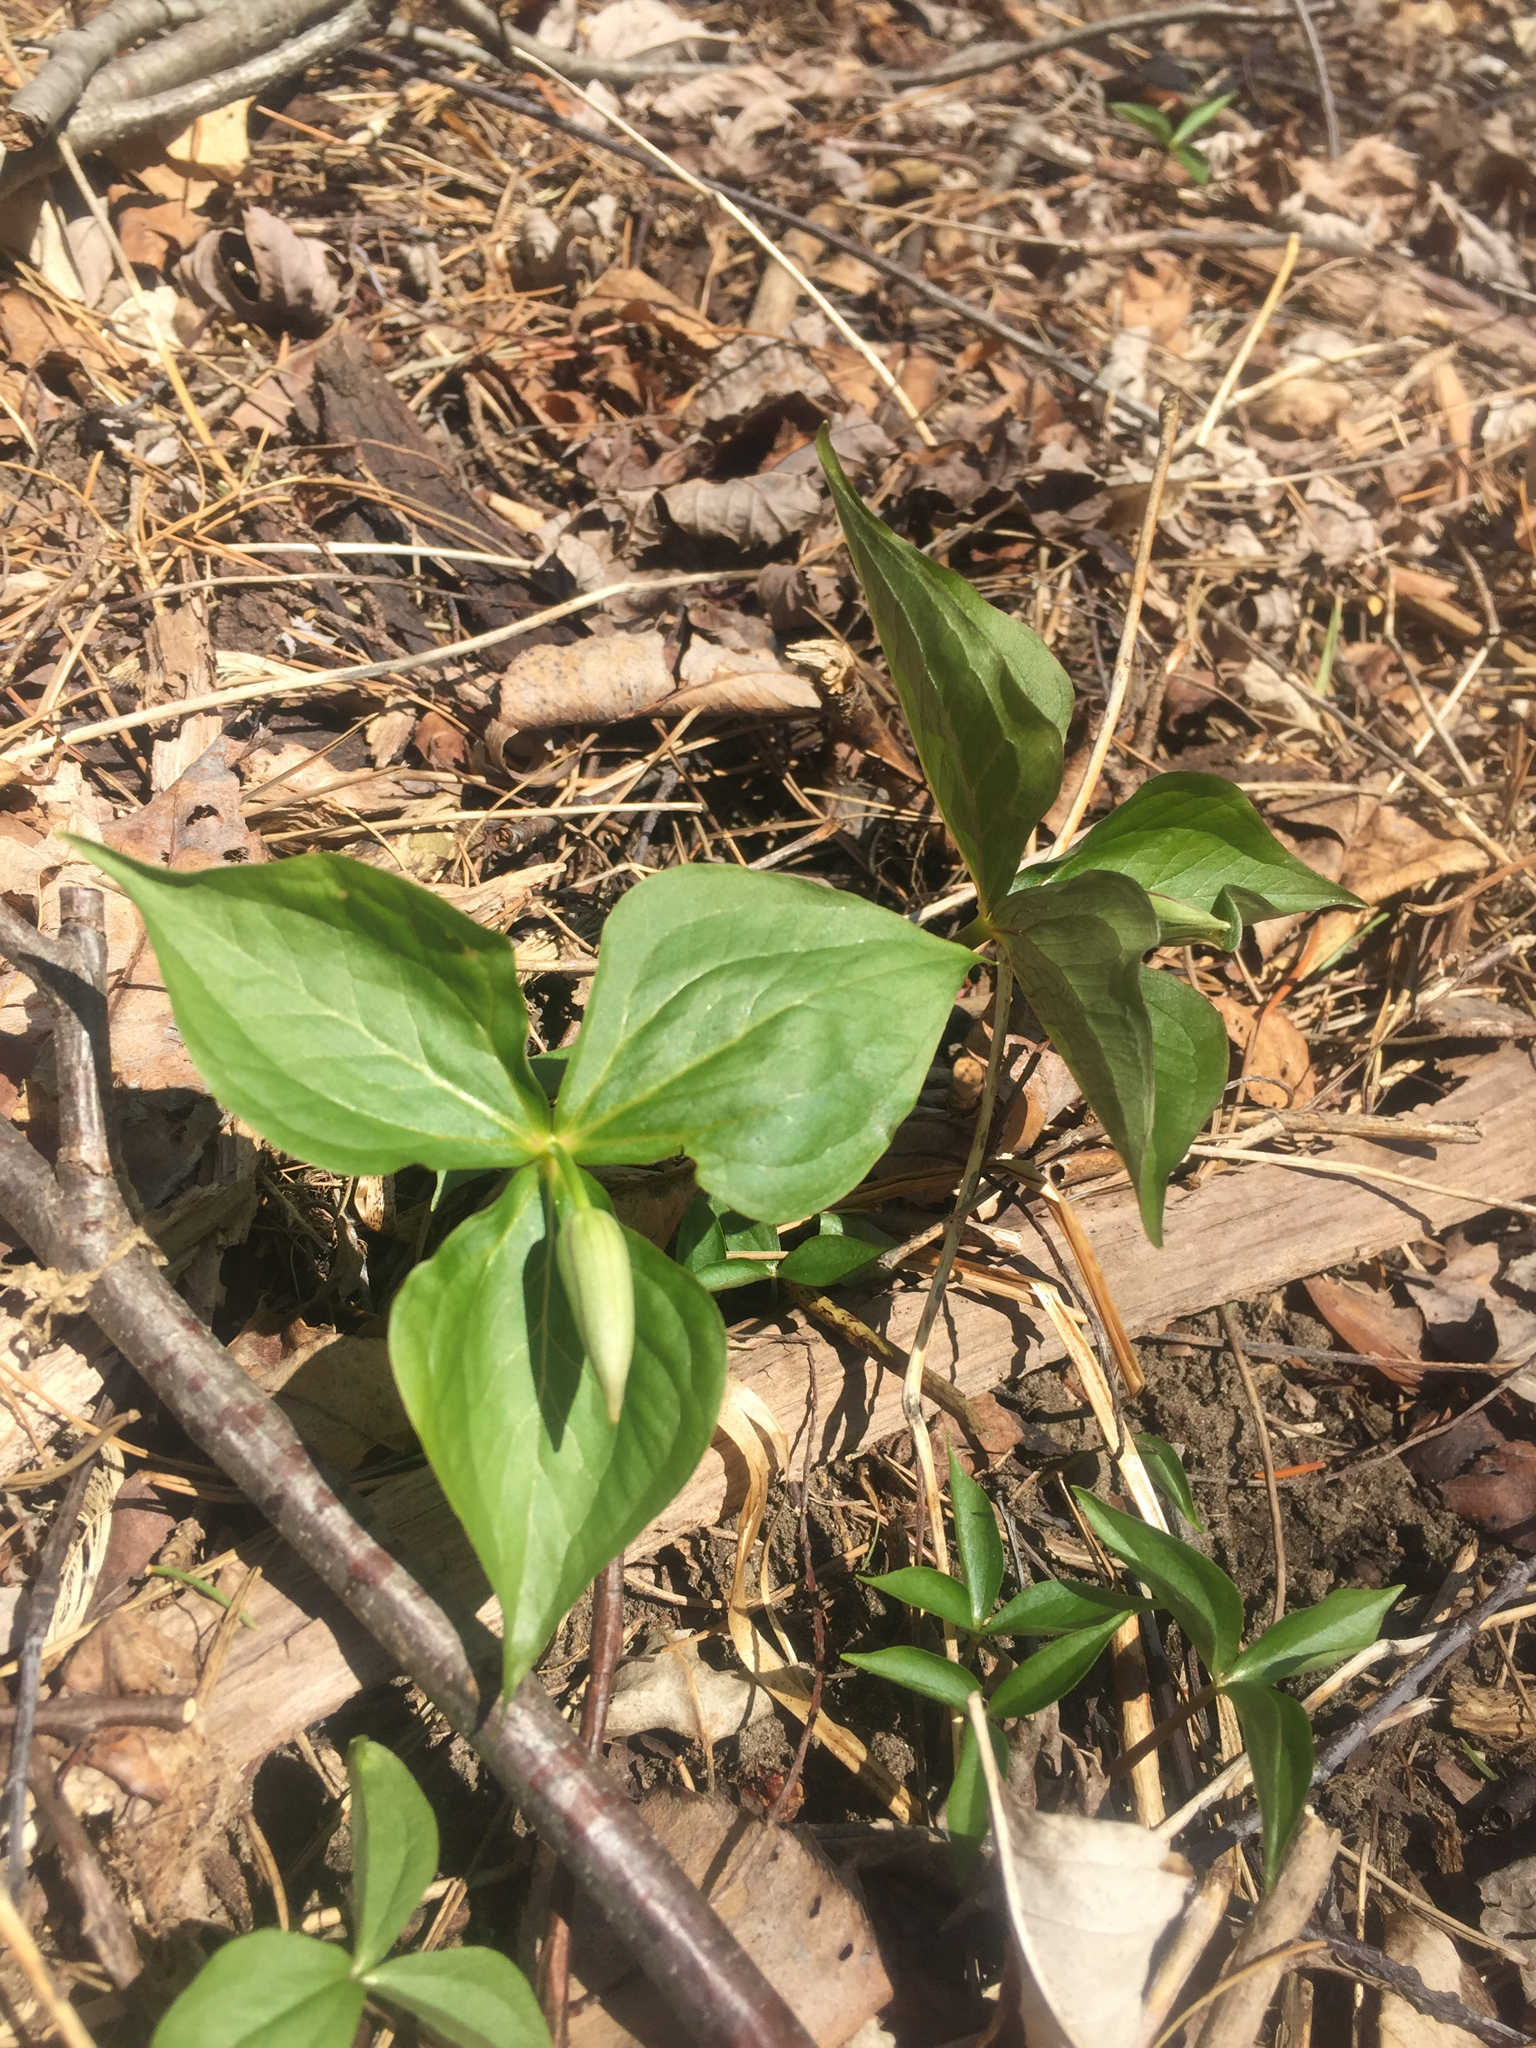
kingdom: Plantae
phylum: Tracheophyta
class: Liliopsida
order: Liliales
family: Melanthiaceae
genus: Trillium
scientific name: Trillium grandiflorum
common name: Great white trillium
